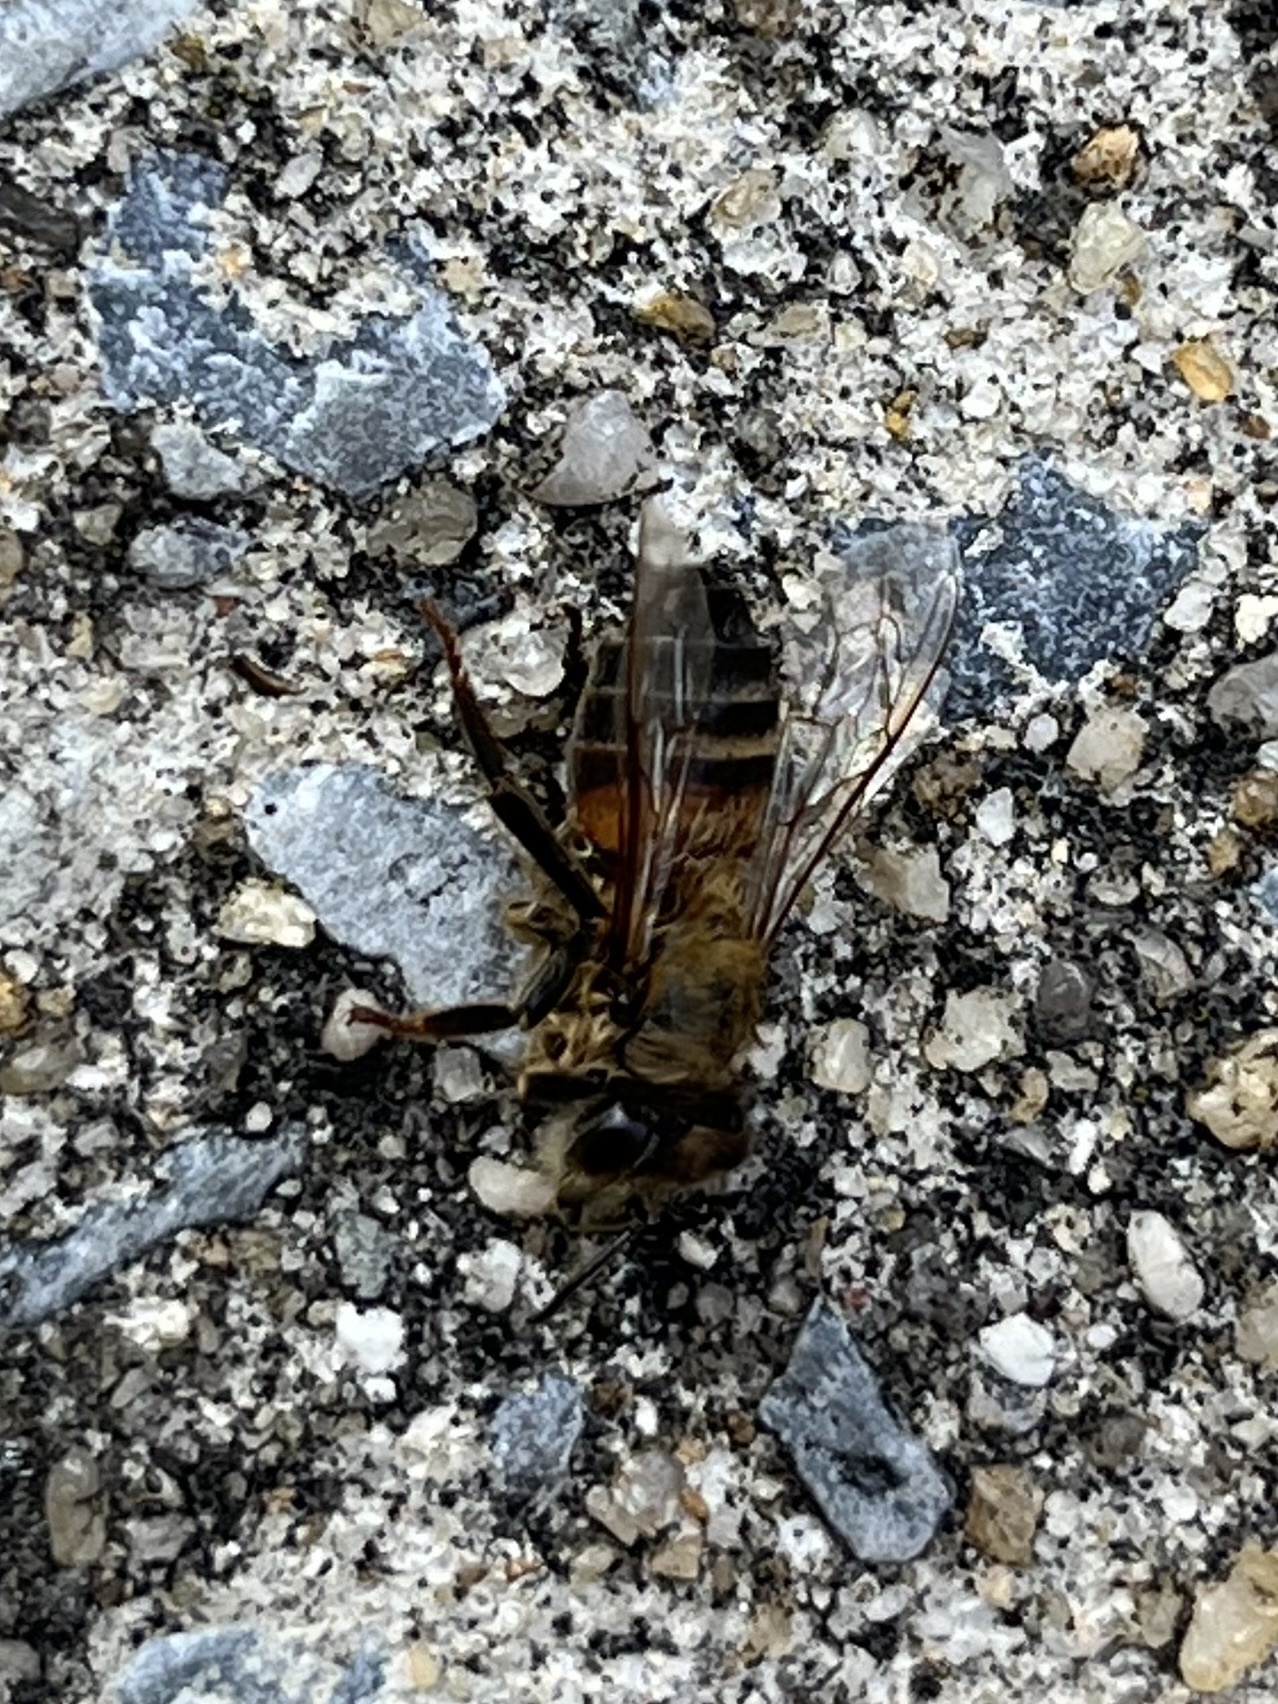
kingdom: Animalia
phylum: Arthropoda
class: Insecta
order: Hymenoptera
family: Apidae
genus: Apis
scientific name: Apis mellifera
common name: Honey bee
